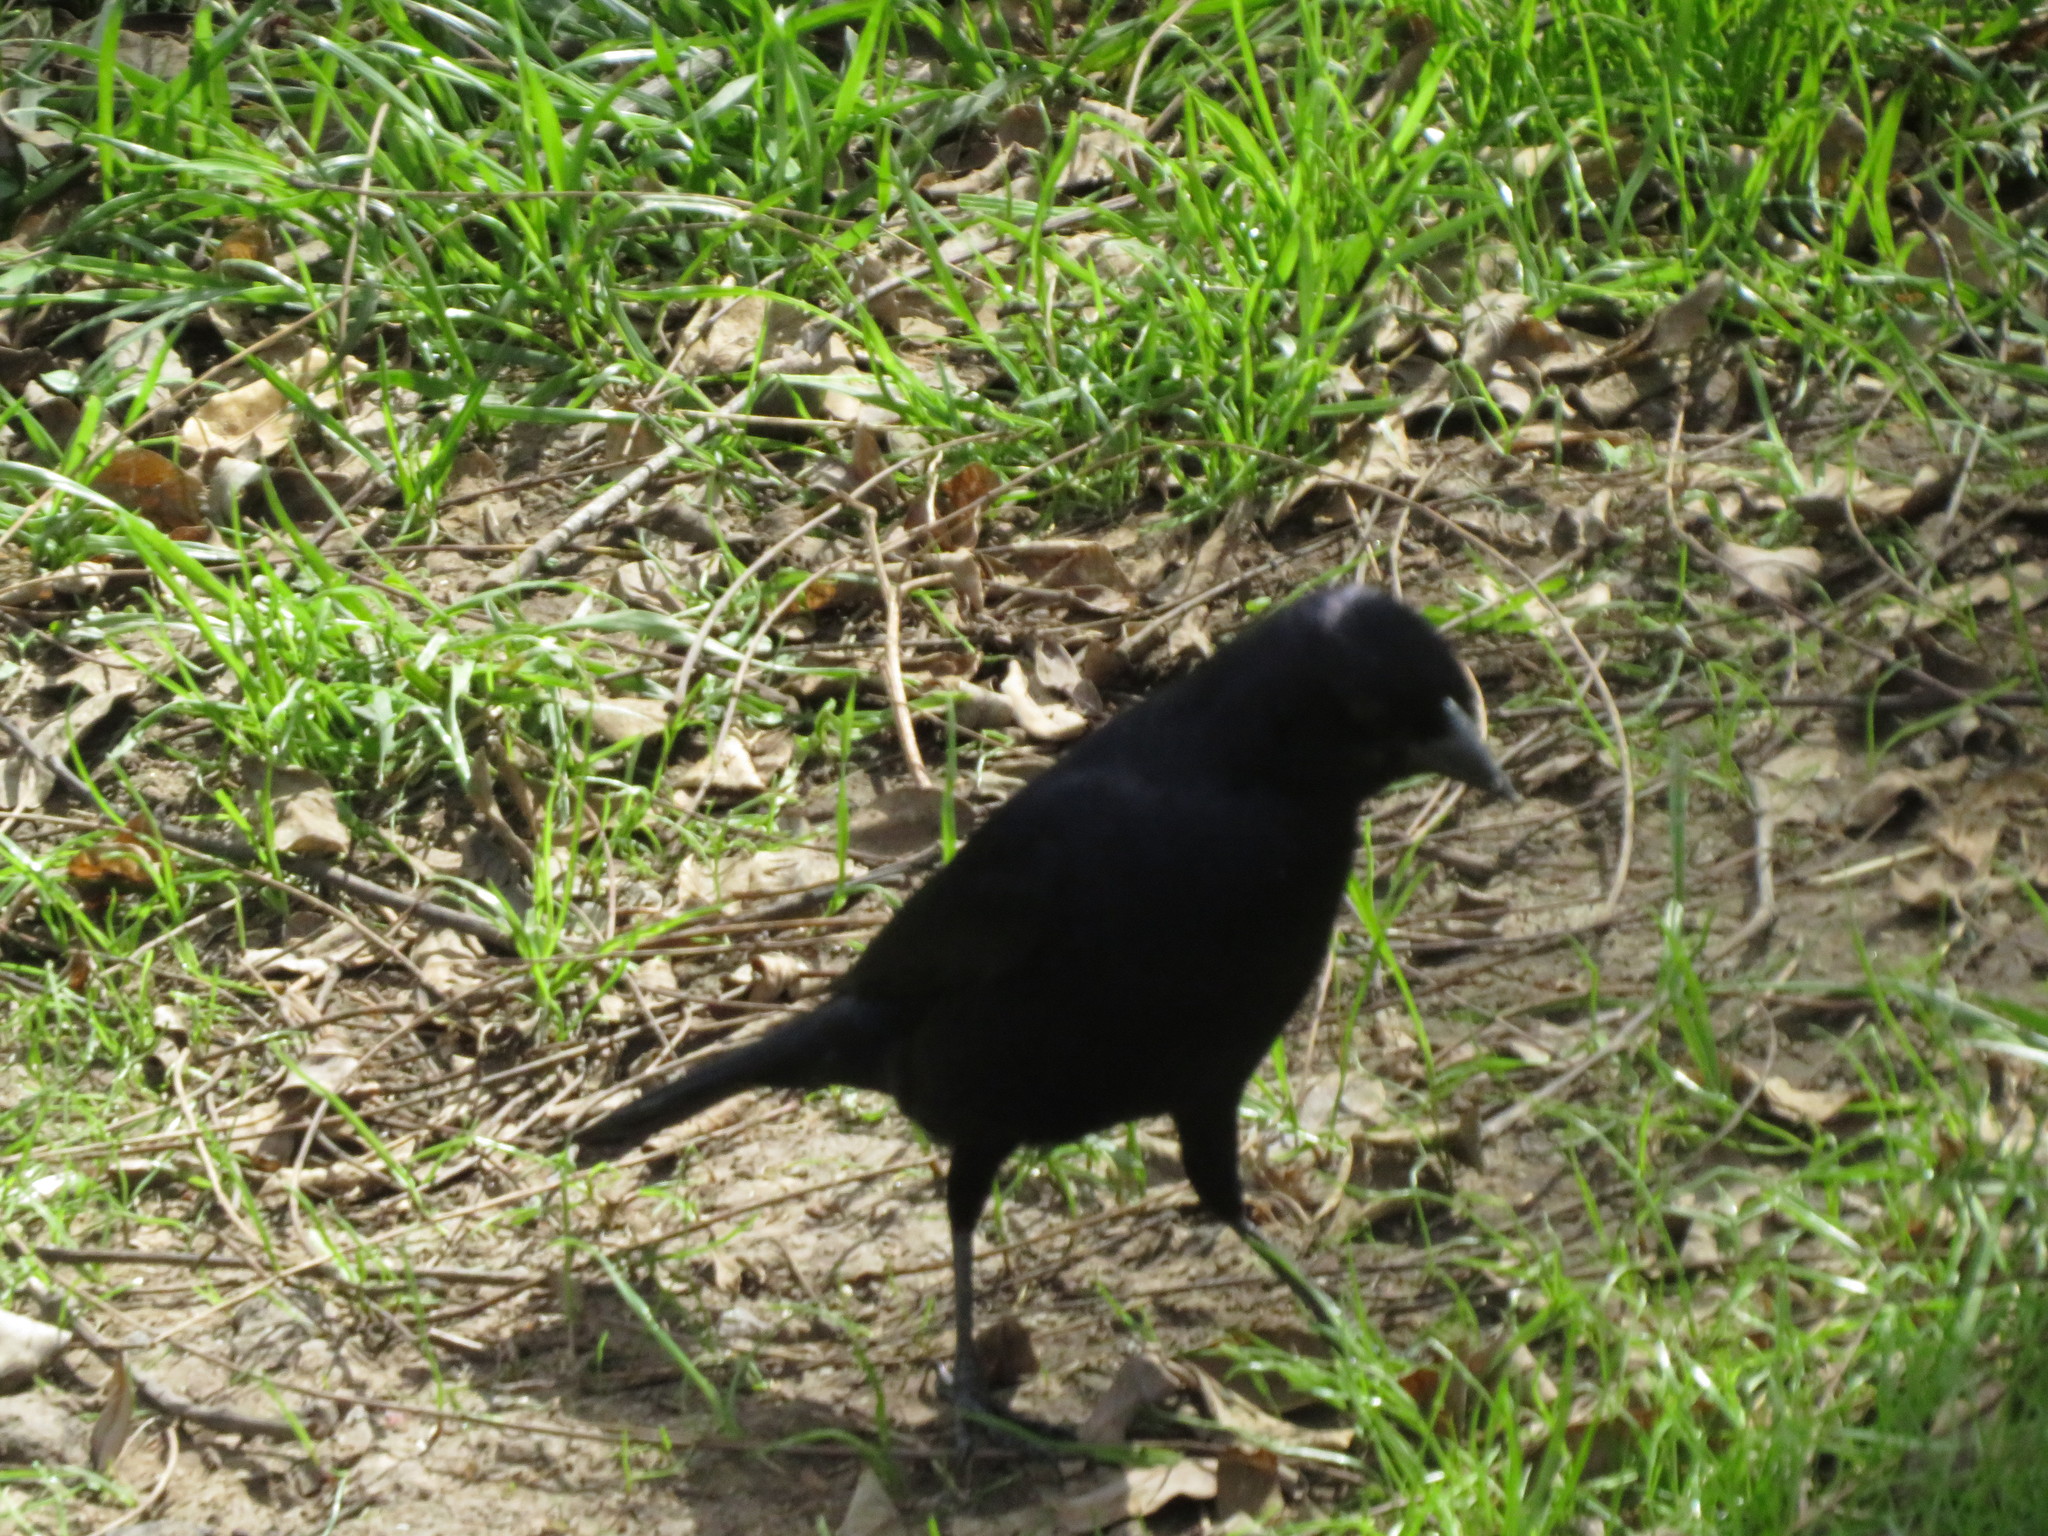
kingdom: Animalia
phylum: Chordata
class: Aves
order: Passeriformes
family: Icteridae
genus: Molothrus
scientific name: Molothrus bonariensis
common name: Shiny cowbird
